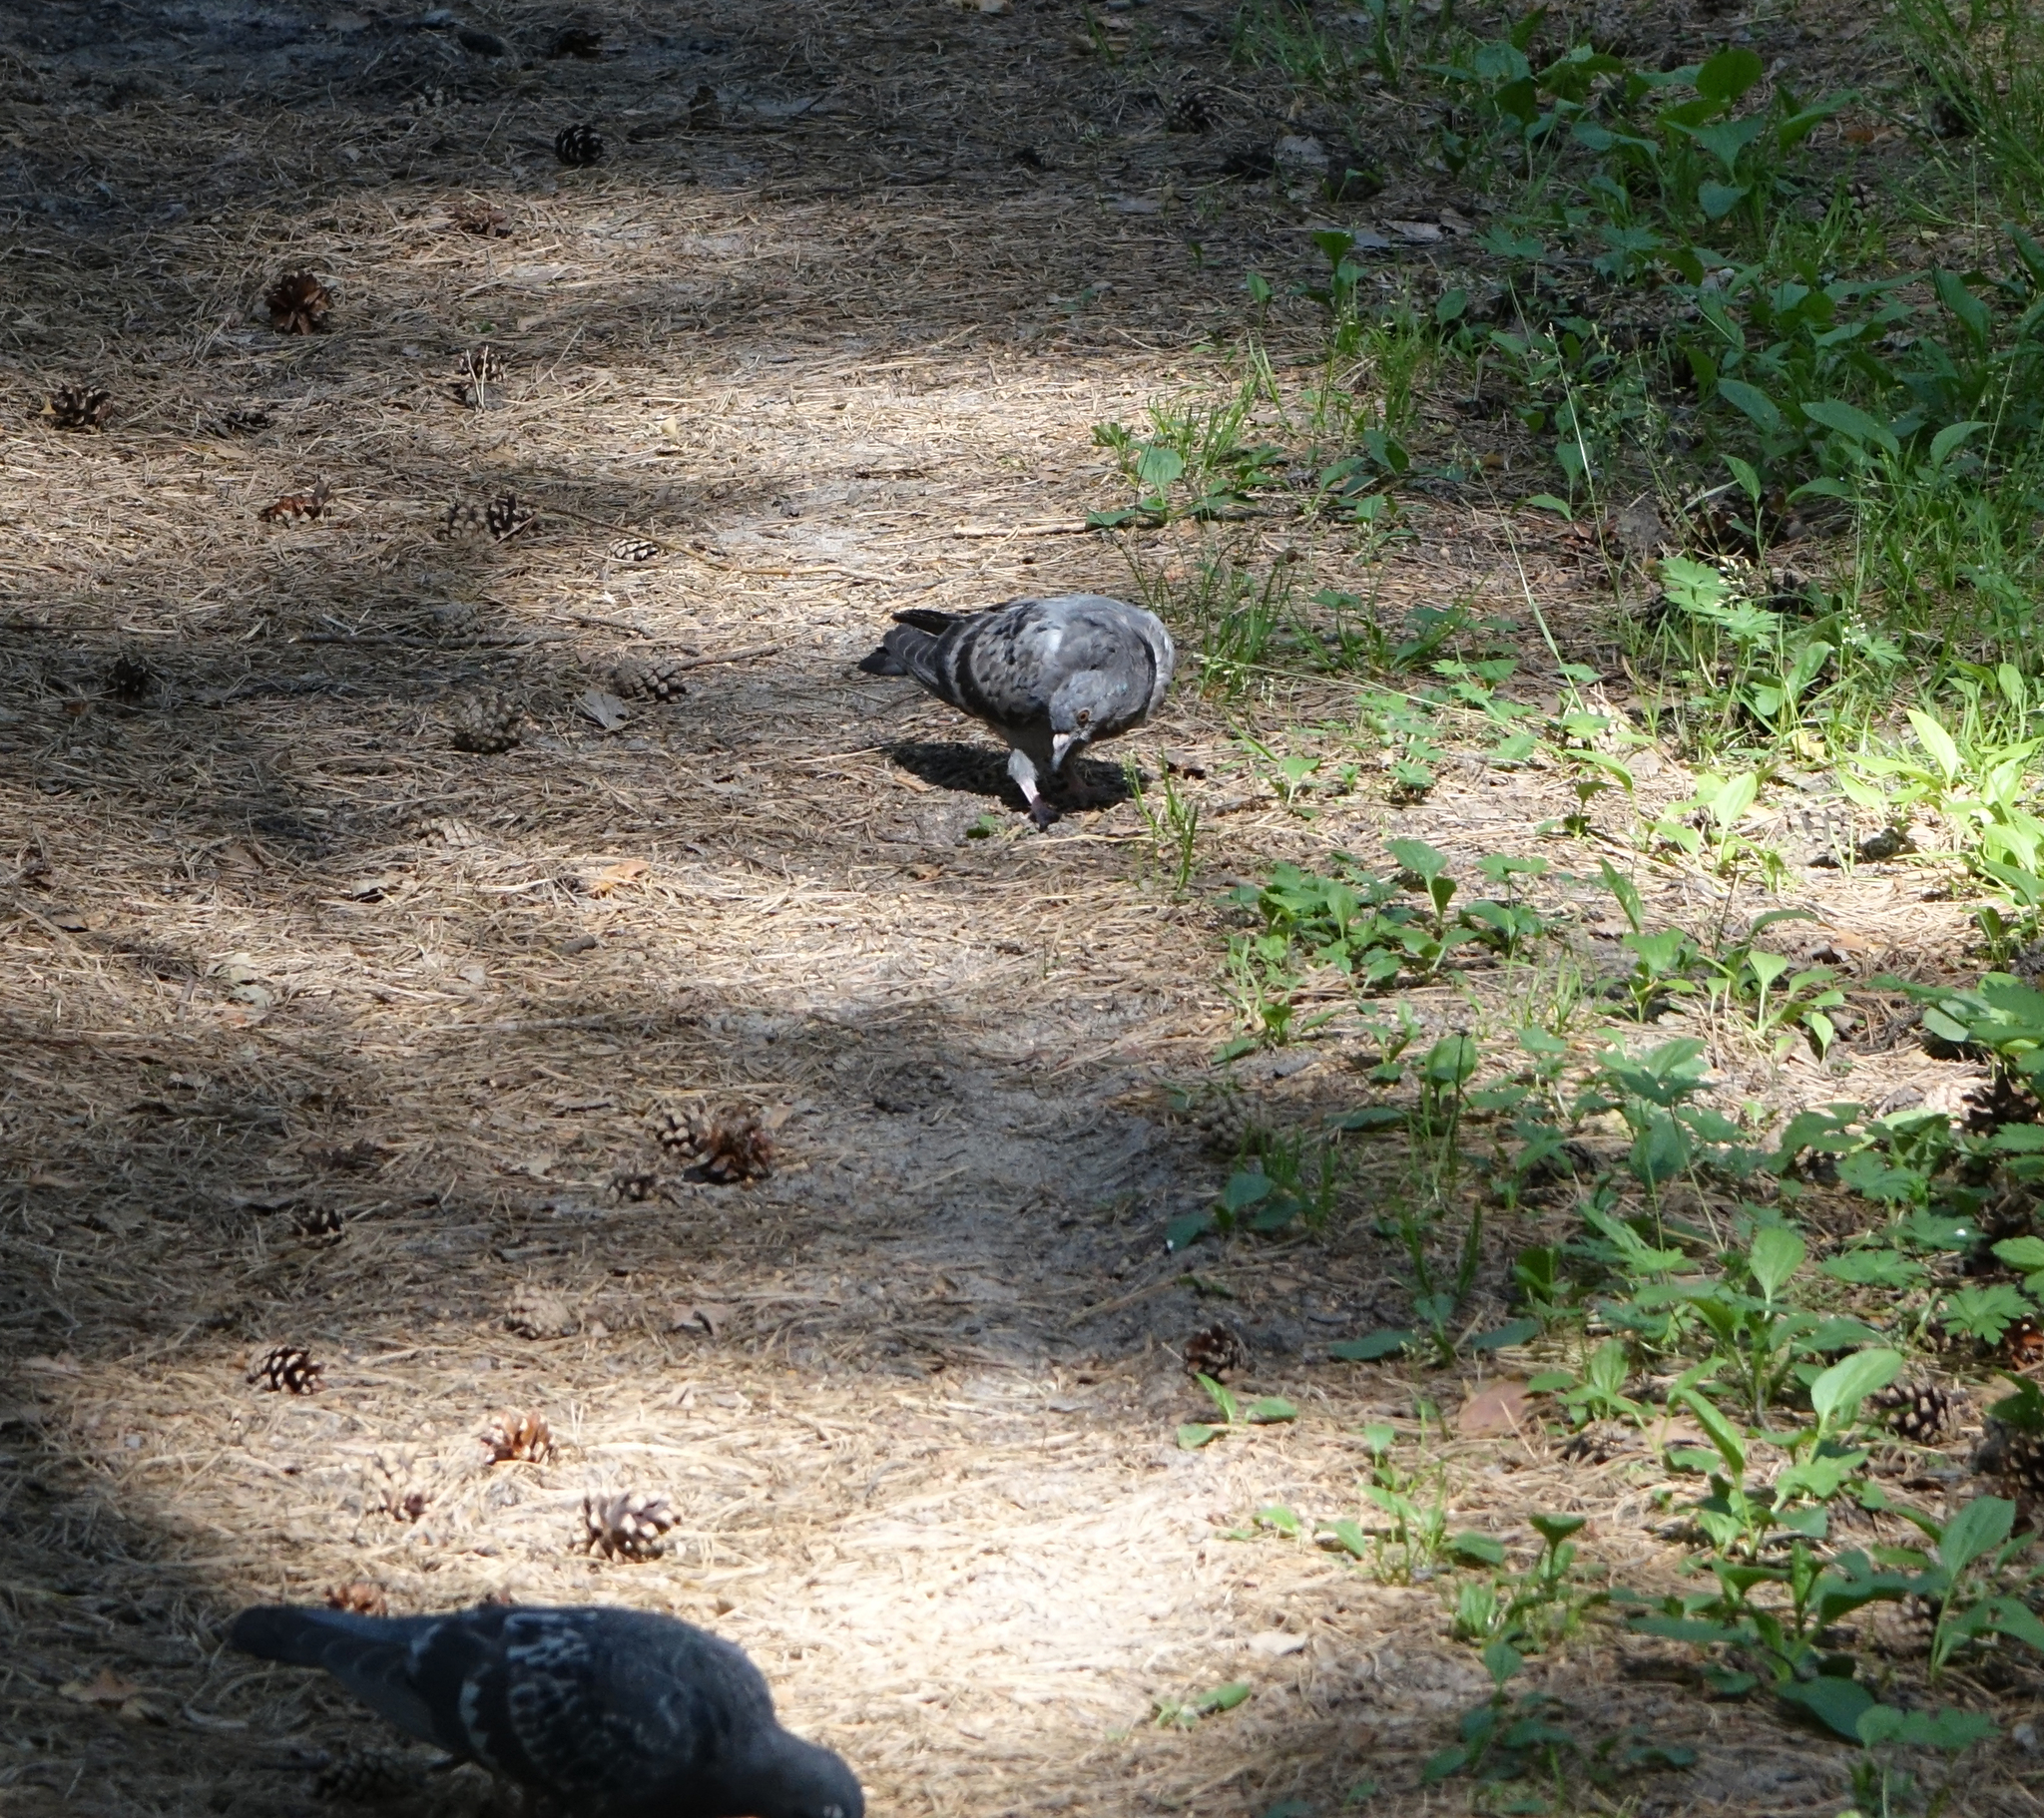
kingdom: Animalia
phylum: Chordata
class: Aves
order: Columbiformes
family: Columbidae
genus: Columba
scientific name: Columba livia
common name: Rock pigeon
